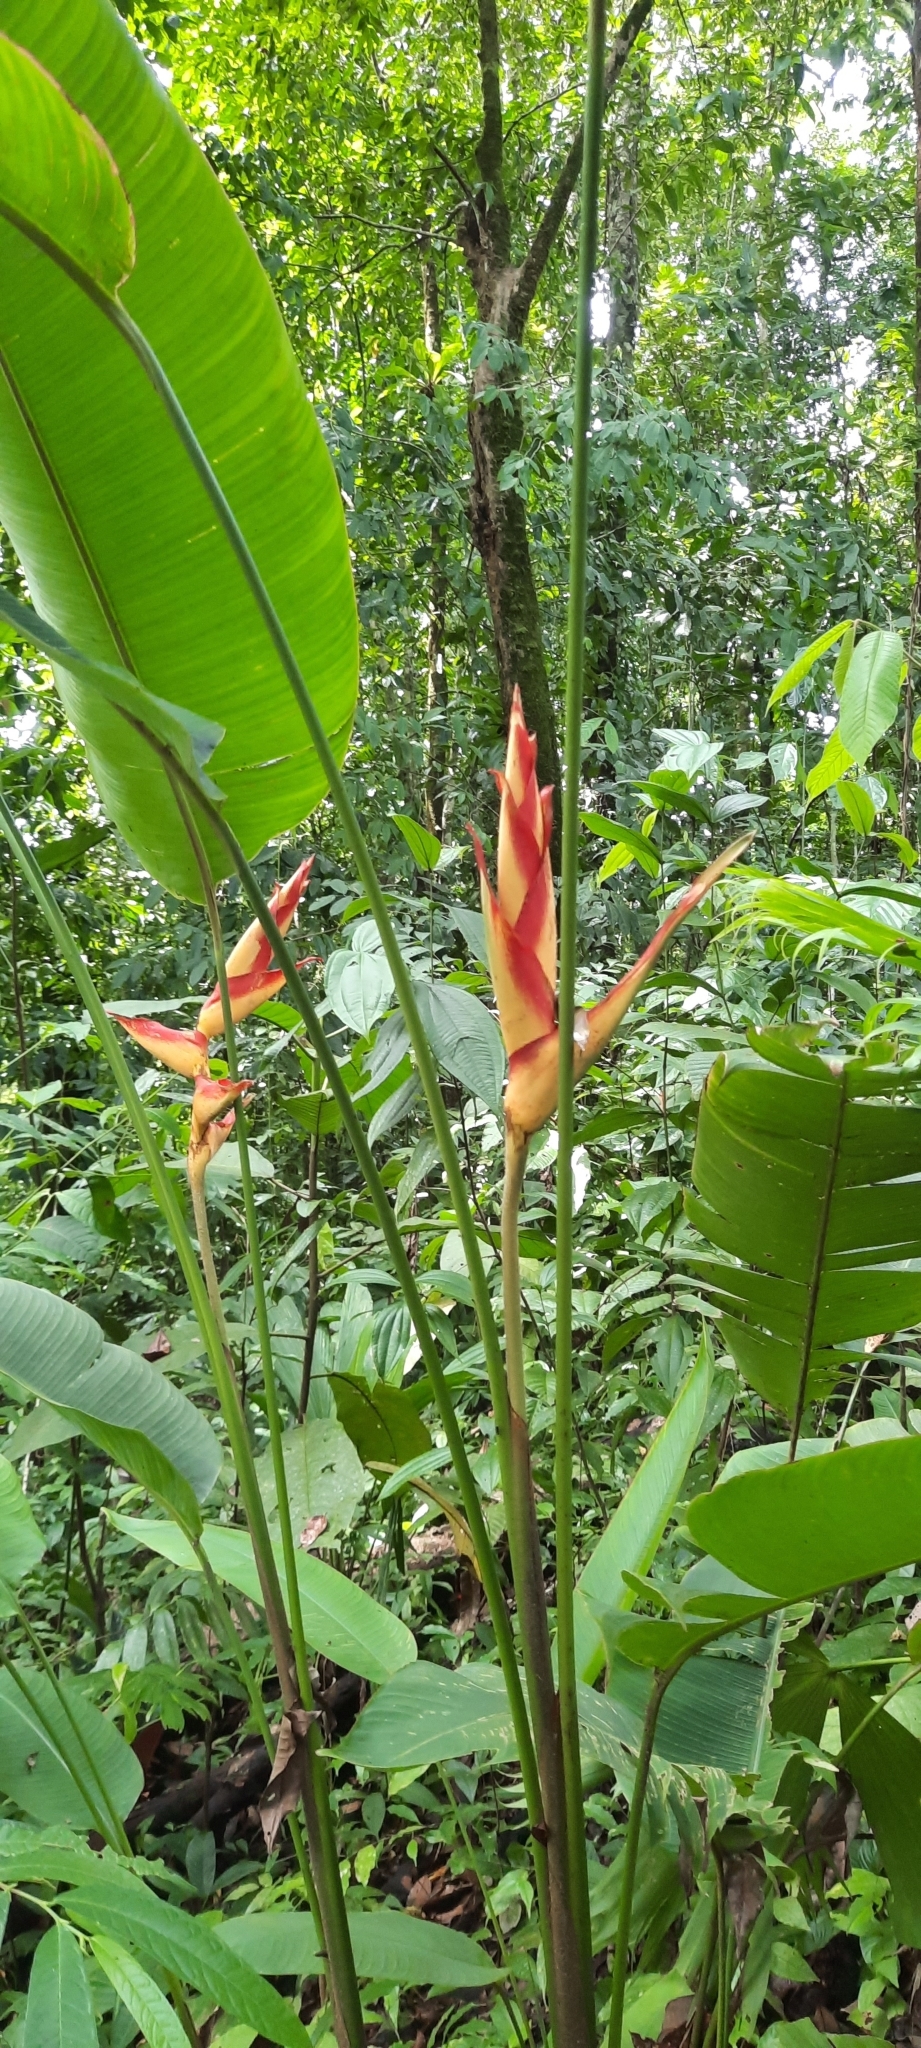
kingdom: Plantae
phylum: Tracheophyta
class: Liliopsida
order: Zingiberales
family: Heliconiaceae
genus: Heliconia
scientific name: Heliconia irrasa
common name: Wild plantain
